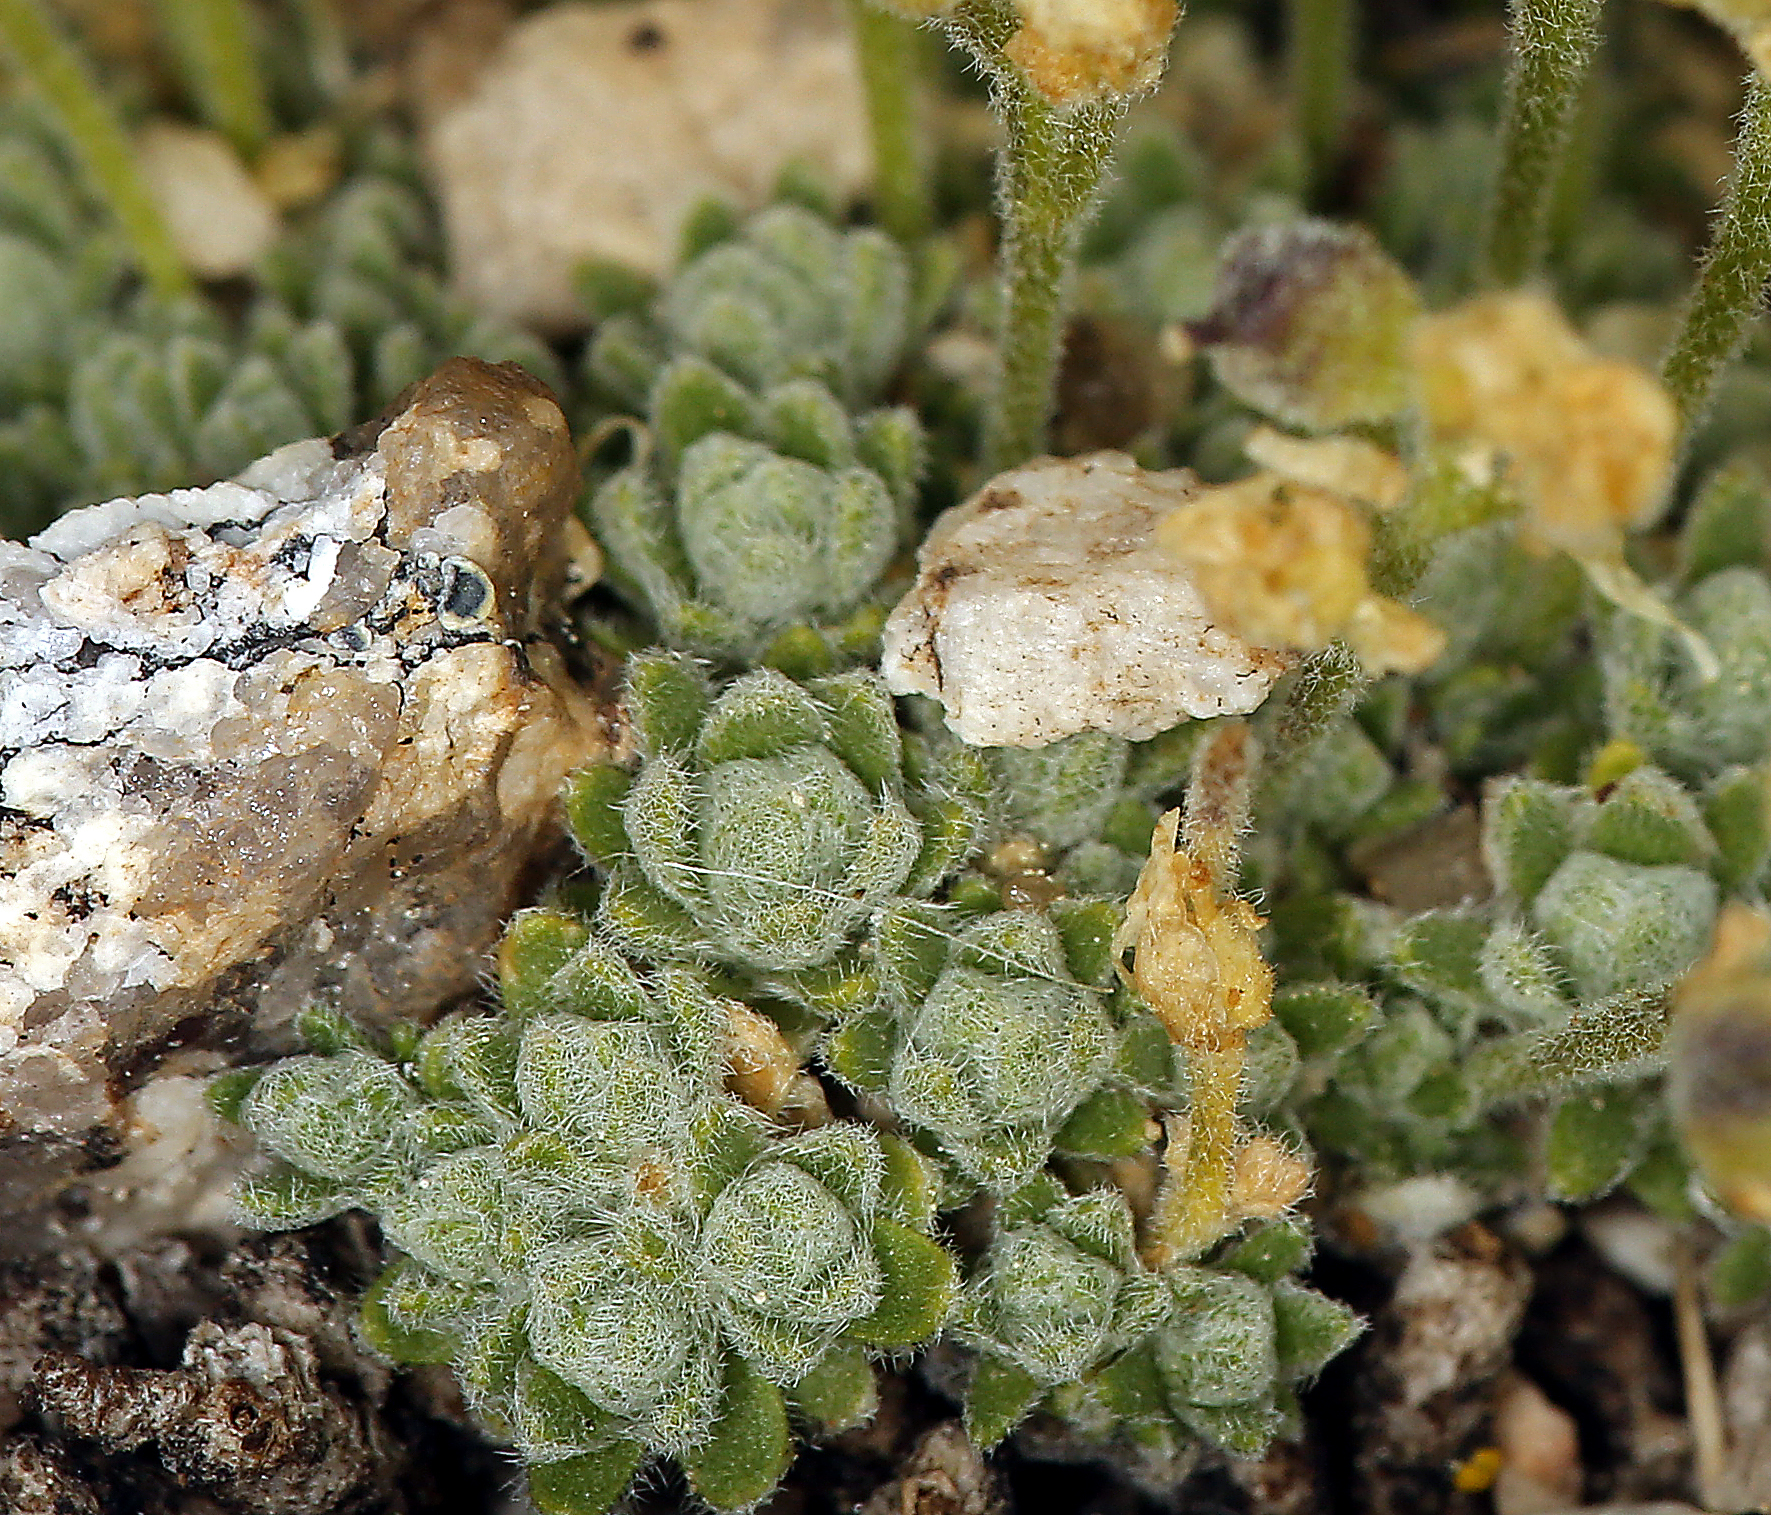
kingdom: Plantae
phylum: Tracheophyta
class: Magnoliopsida
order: Brassicales
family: Brassicaceae
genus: Draba
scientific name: Draba subumbellata
